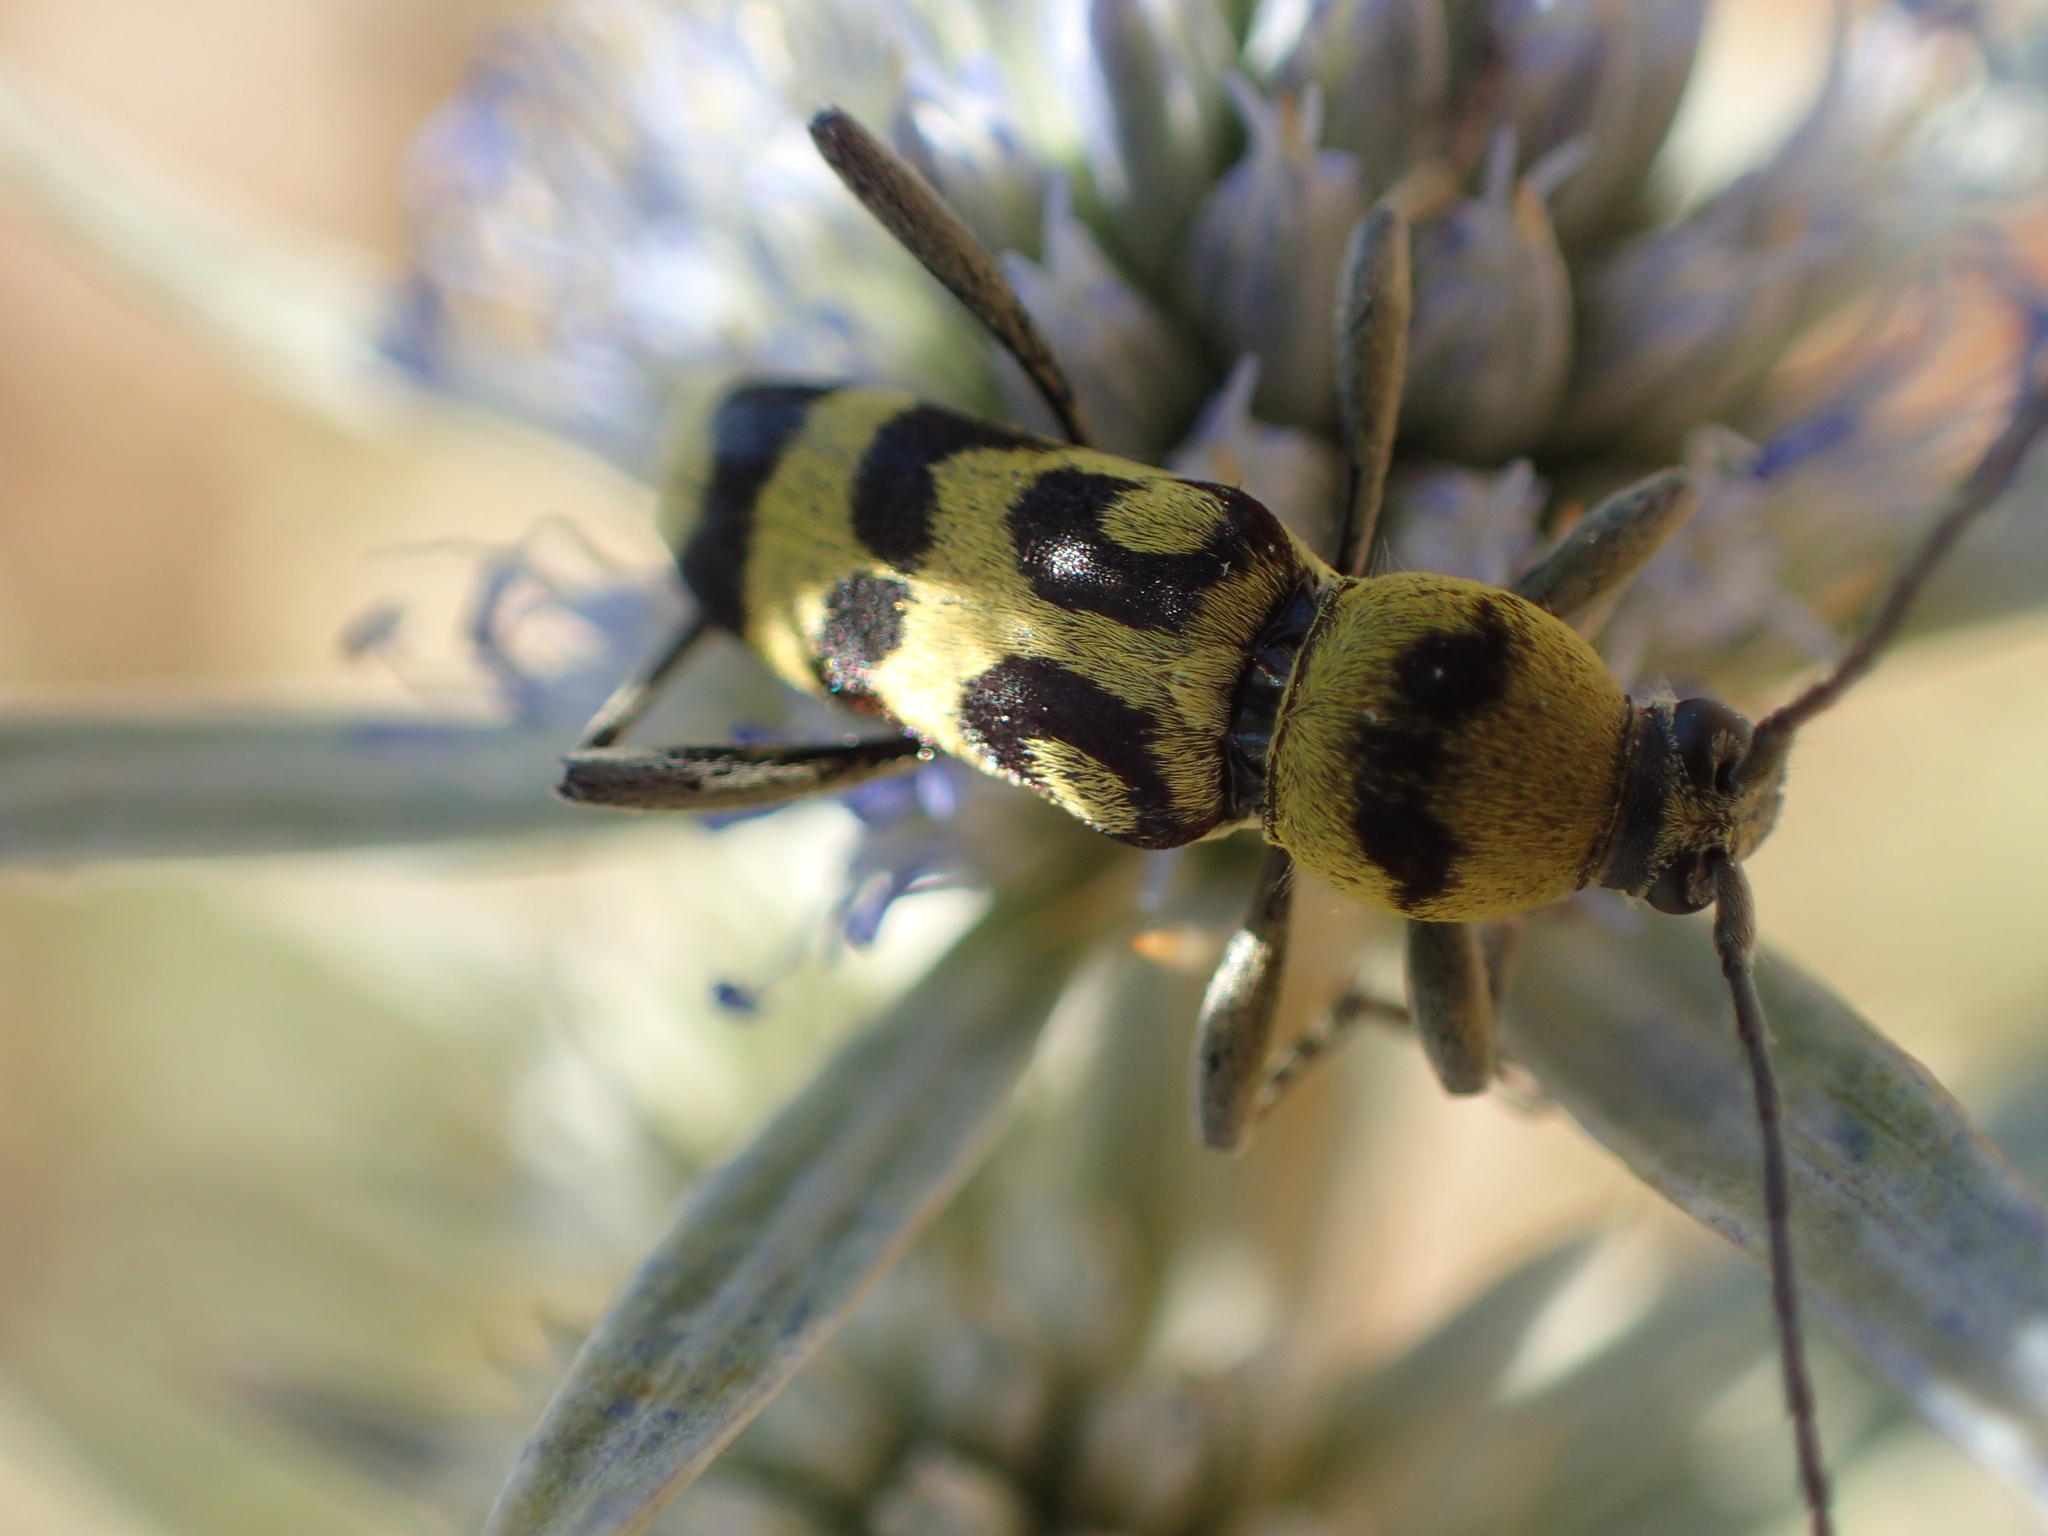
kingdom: Animalia
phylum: Arthropoda
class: Insecta
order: Coleoptera
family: Cerambycidae
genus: Chlorophorus
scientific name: Chlorophorus varius
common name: Grape wood borer
